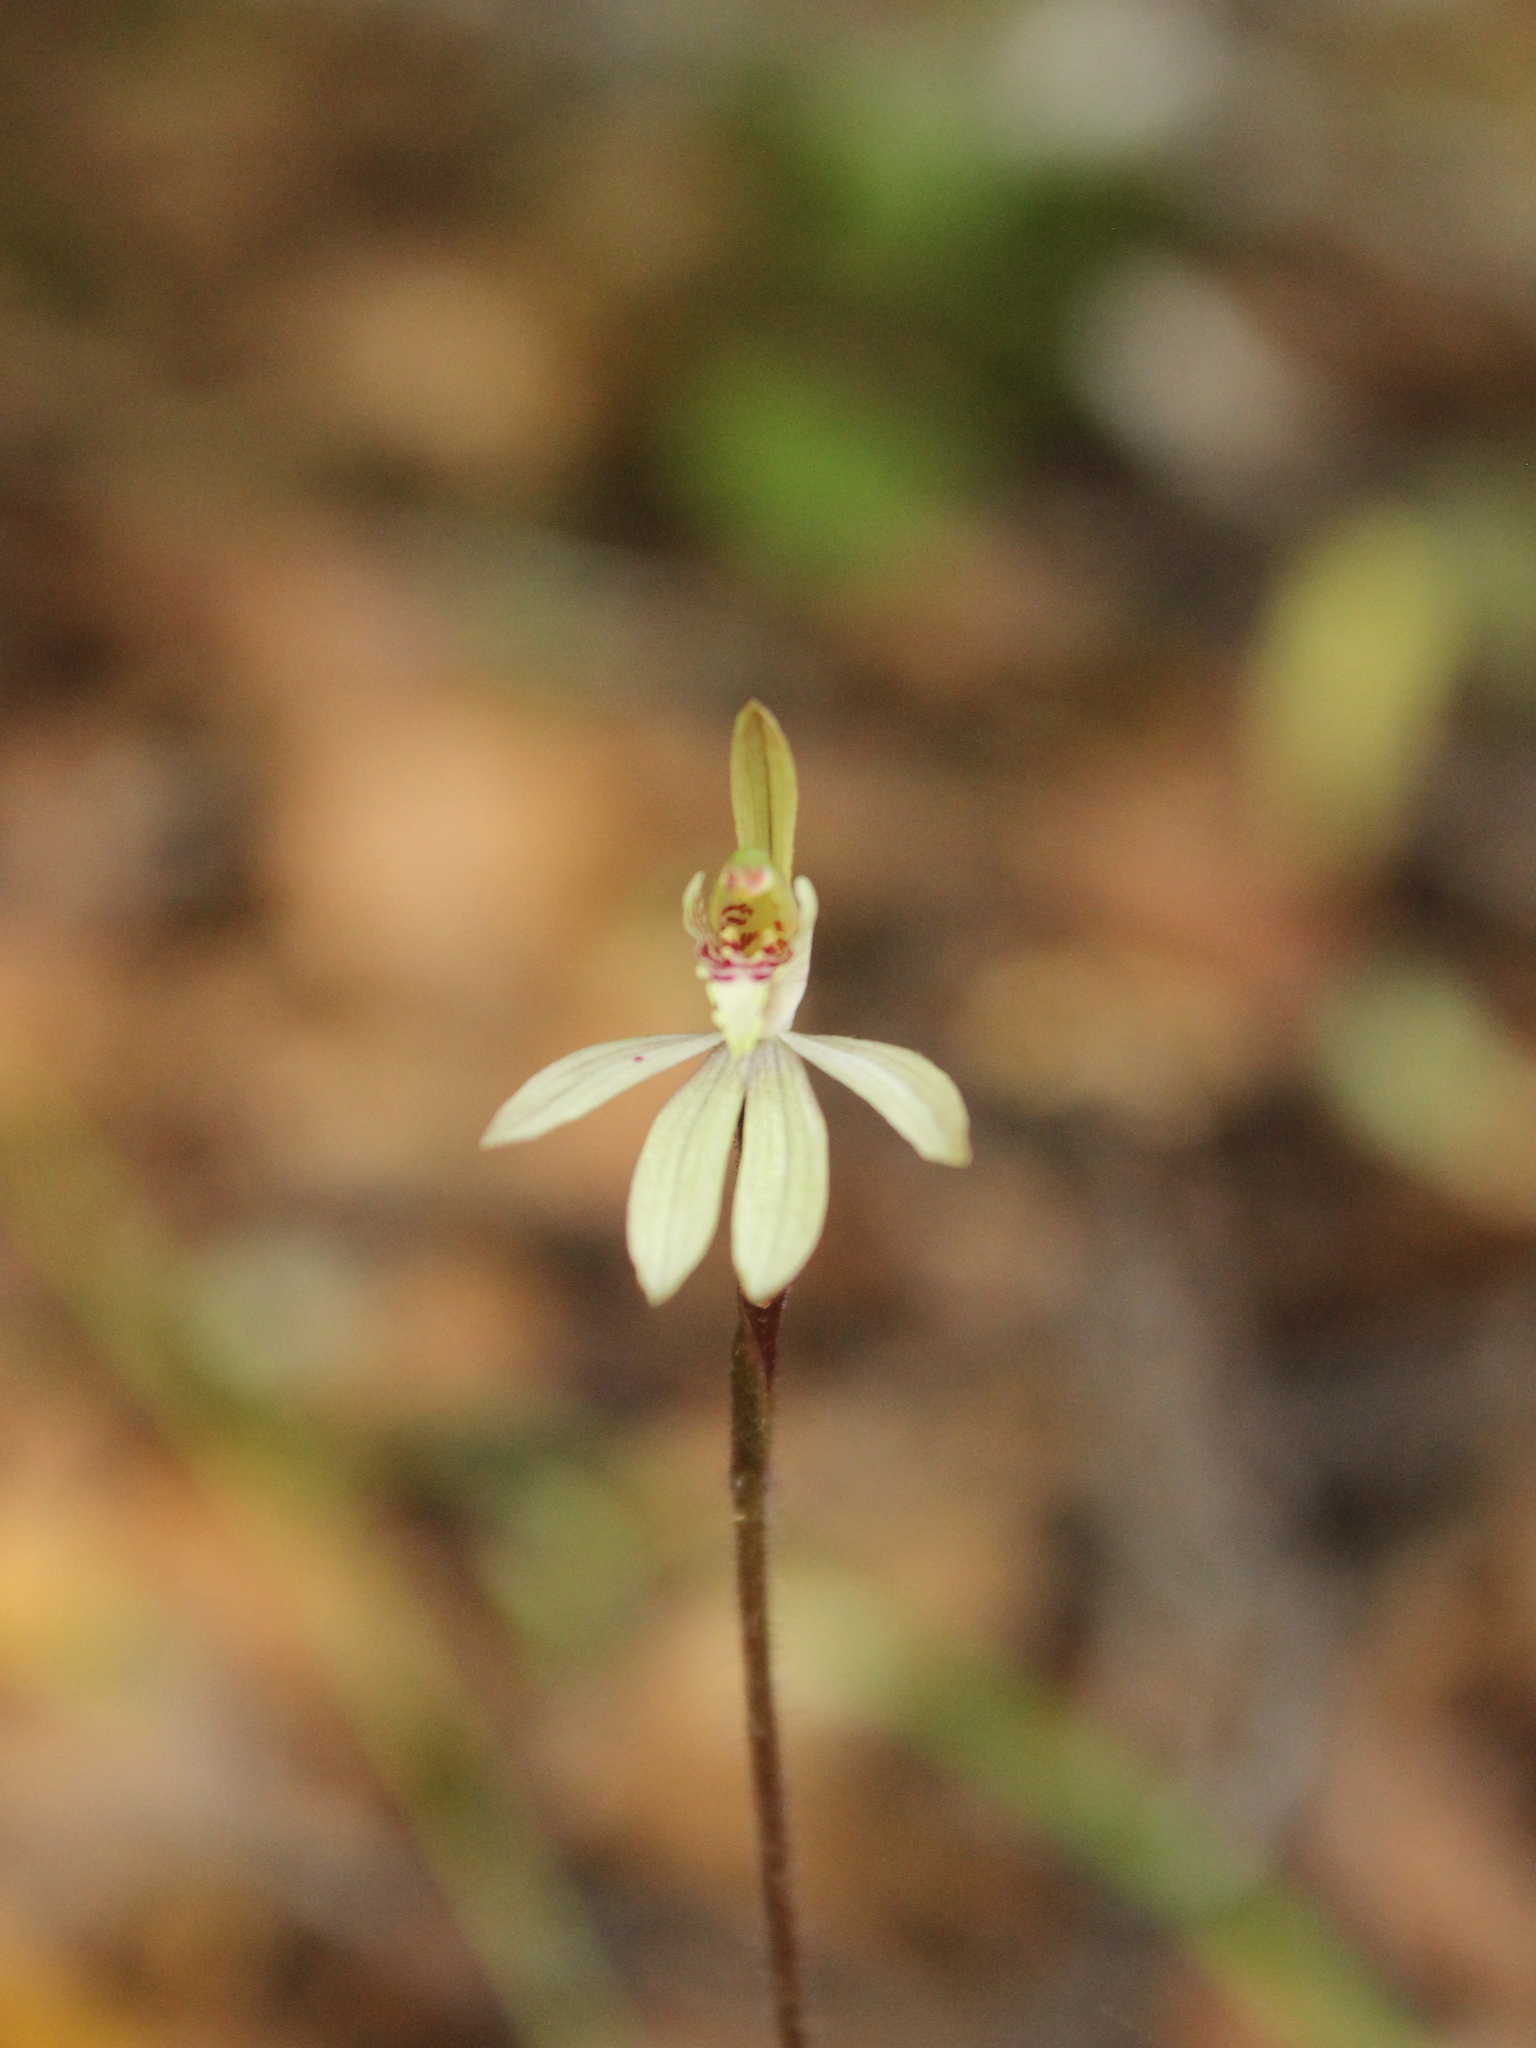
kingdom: Plantae
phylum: Tracheophyta
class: Liliopsida
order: Asparagales
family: Orchidaceae
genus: Caladenia
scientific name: Caladenia chlorostyla
